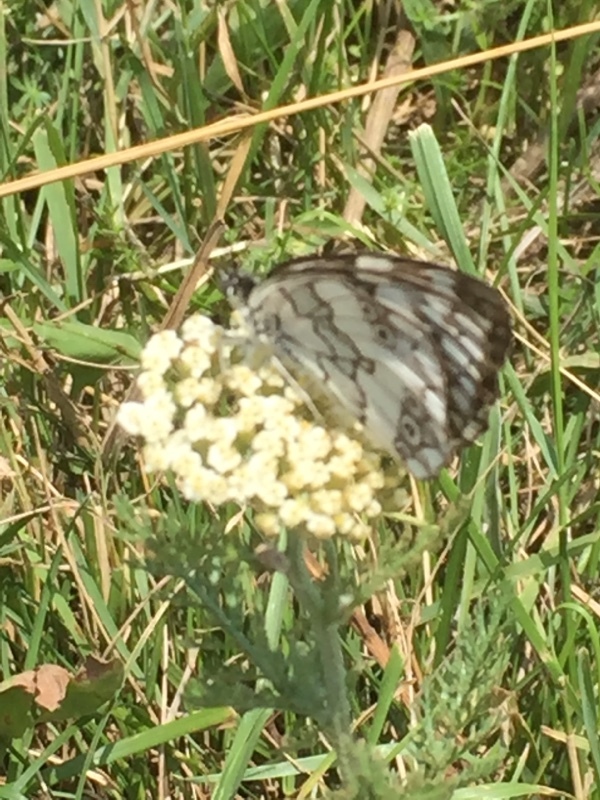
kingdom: Animalia
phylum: Arthropoda
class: Insecta
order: Lepidoptera
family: Nymphalidae
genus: Melanargia
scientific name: Melanargia larissa
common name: Balkan marbled white
